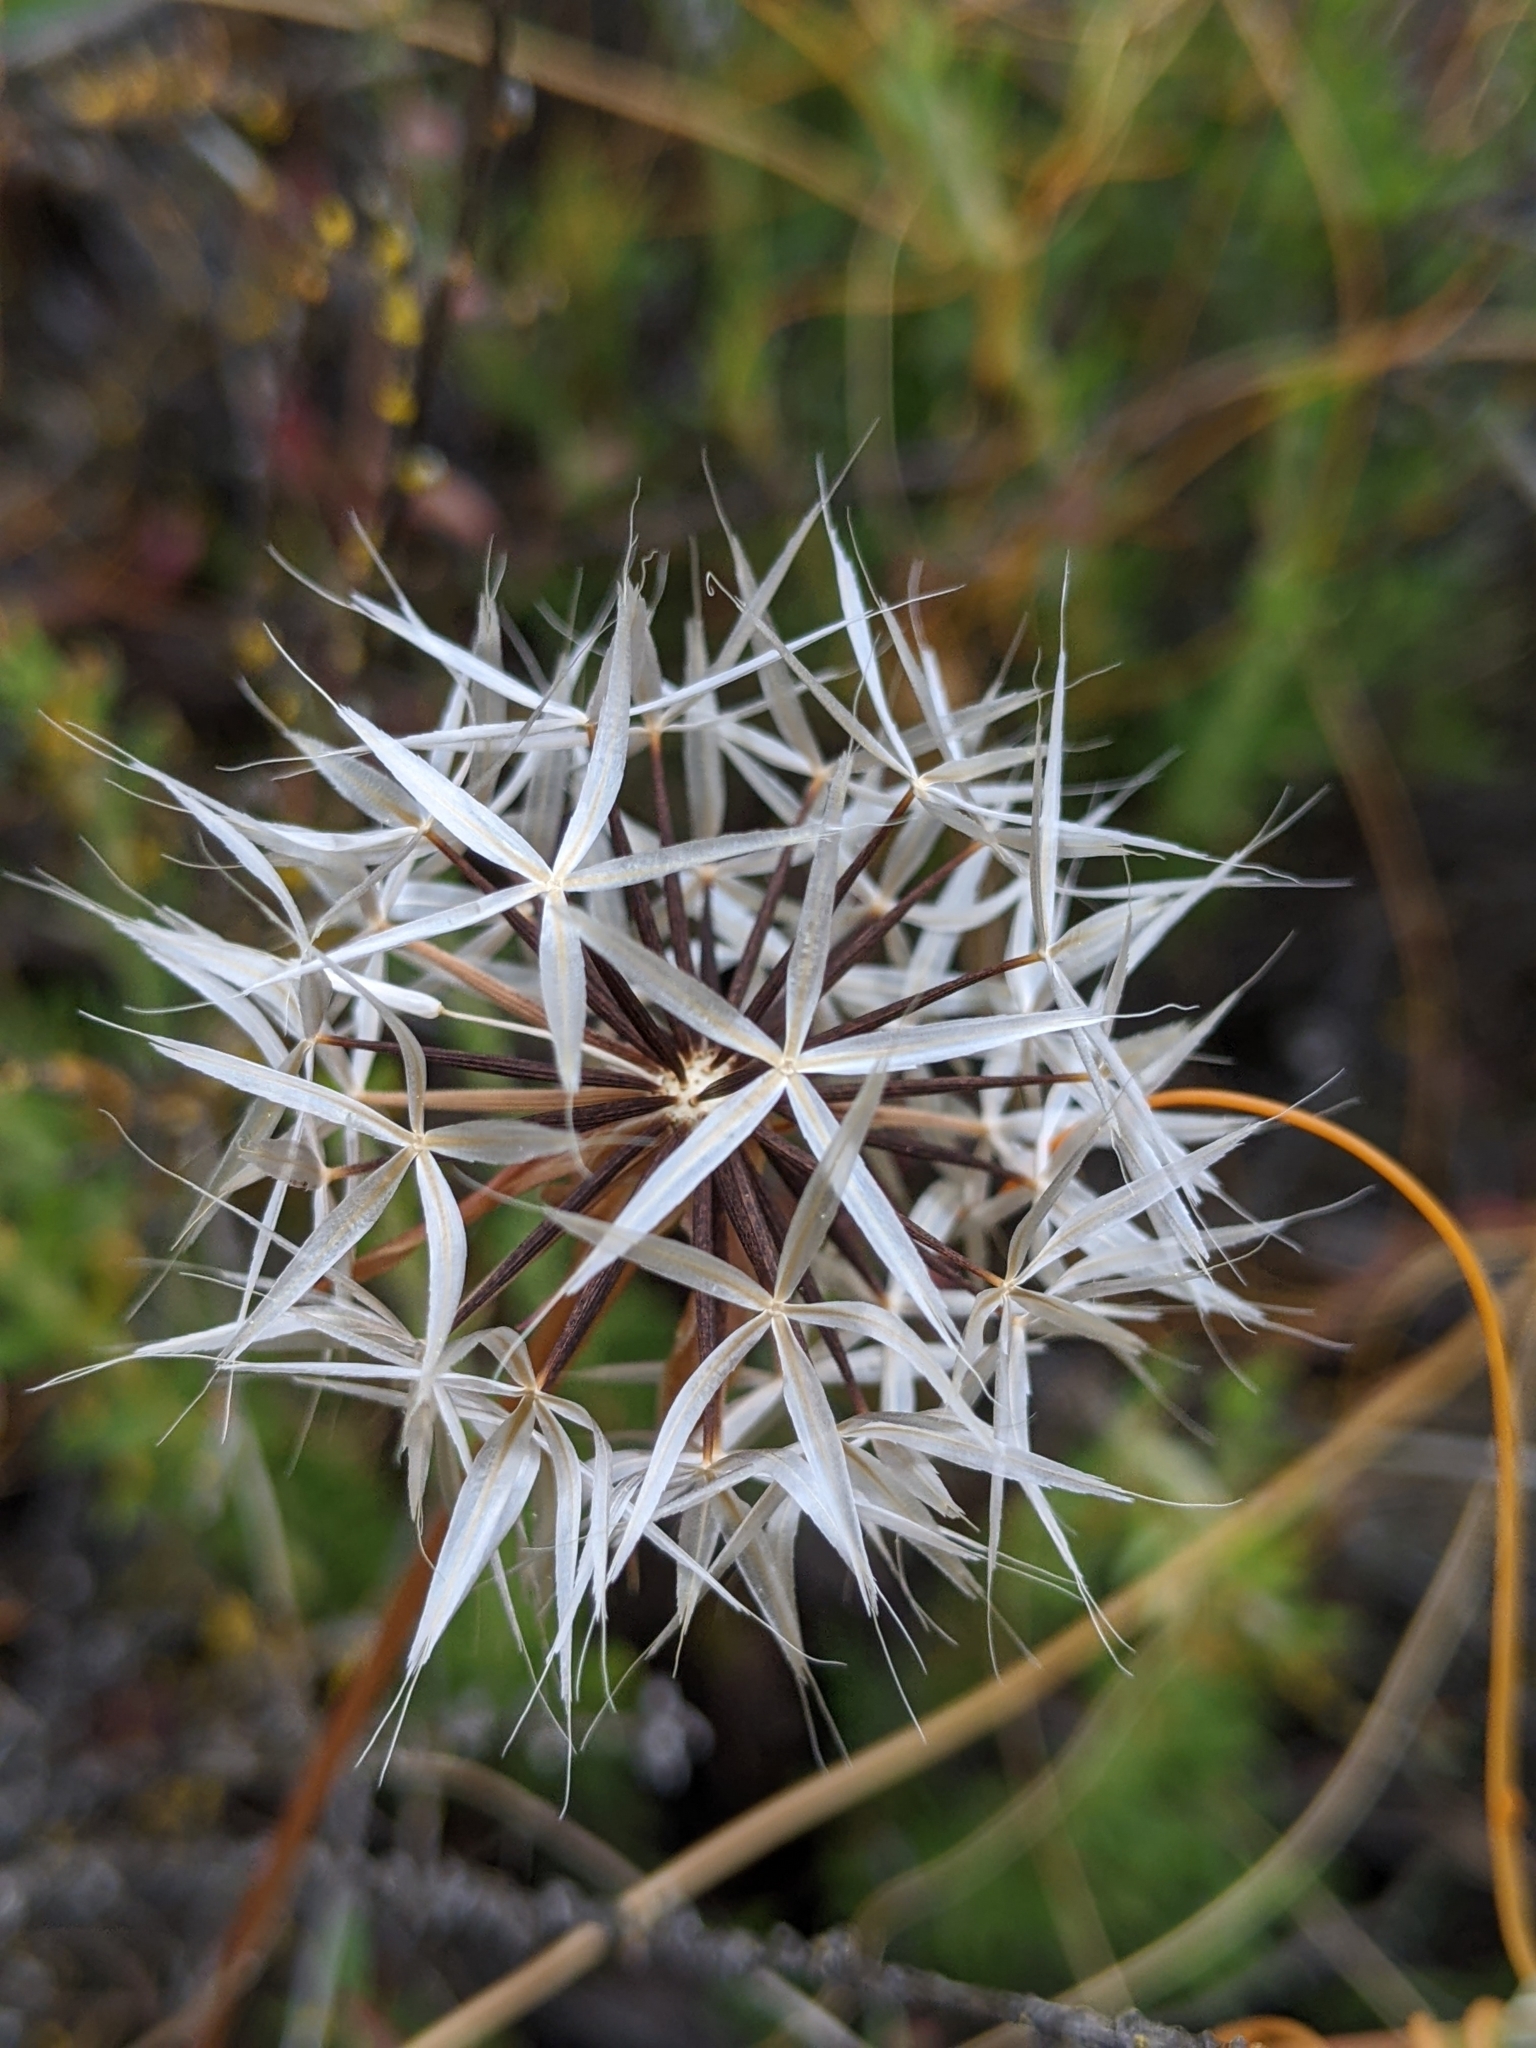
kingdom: Plantae
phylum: Tracheophyta
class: Magnoliopsida
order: Asterales
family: Asteraceae
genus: Microseris
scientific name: Microseris lindleyi
